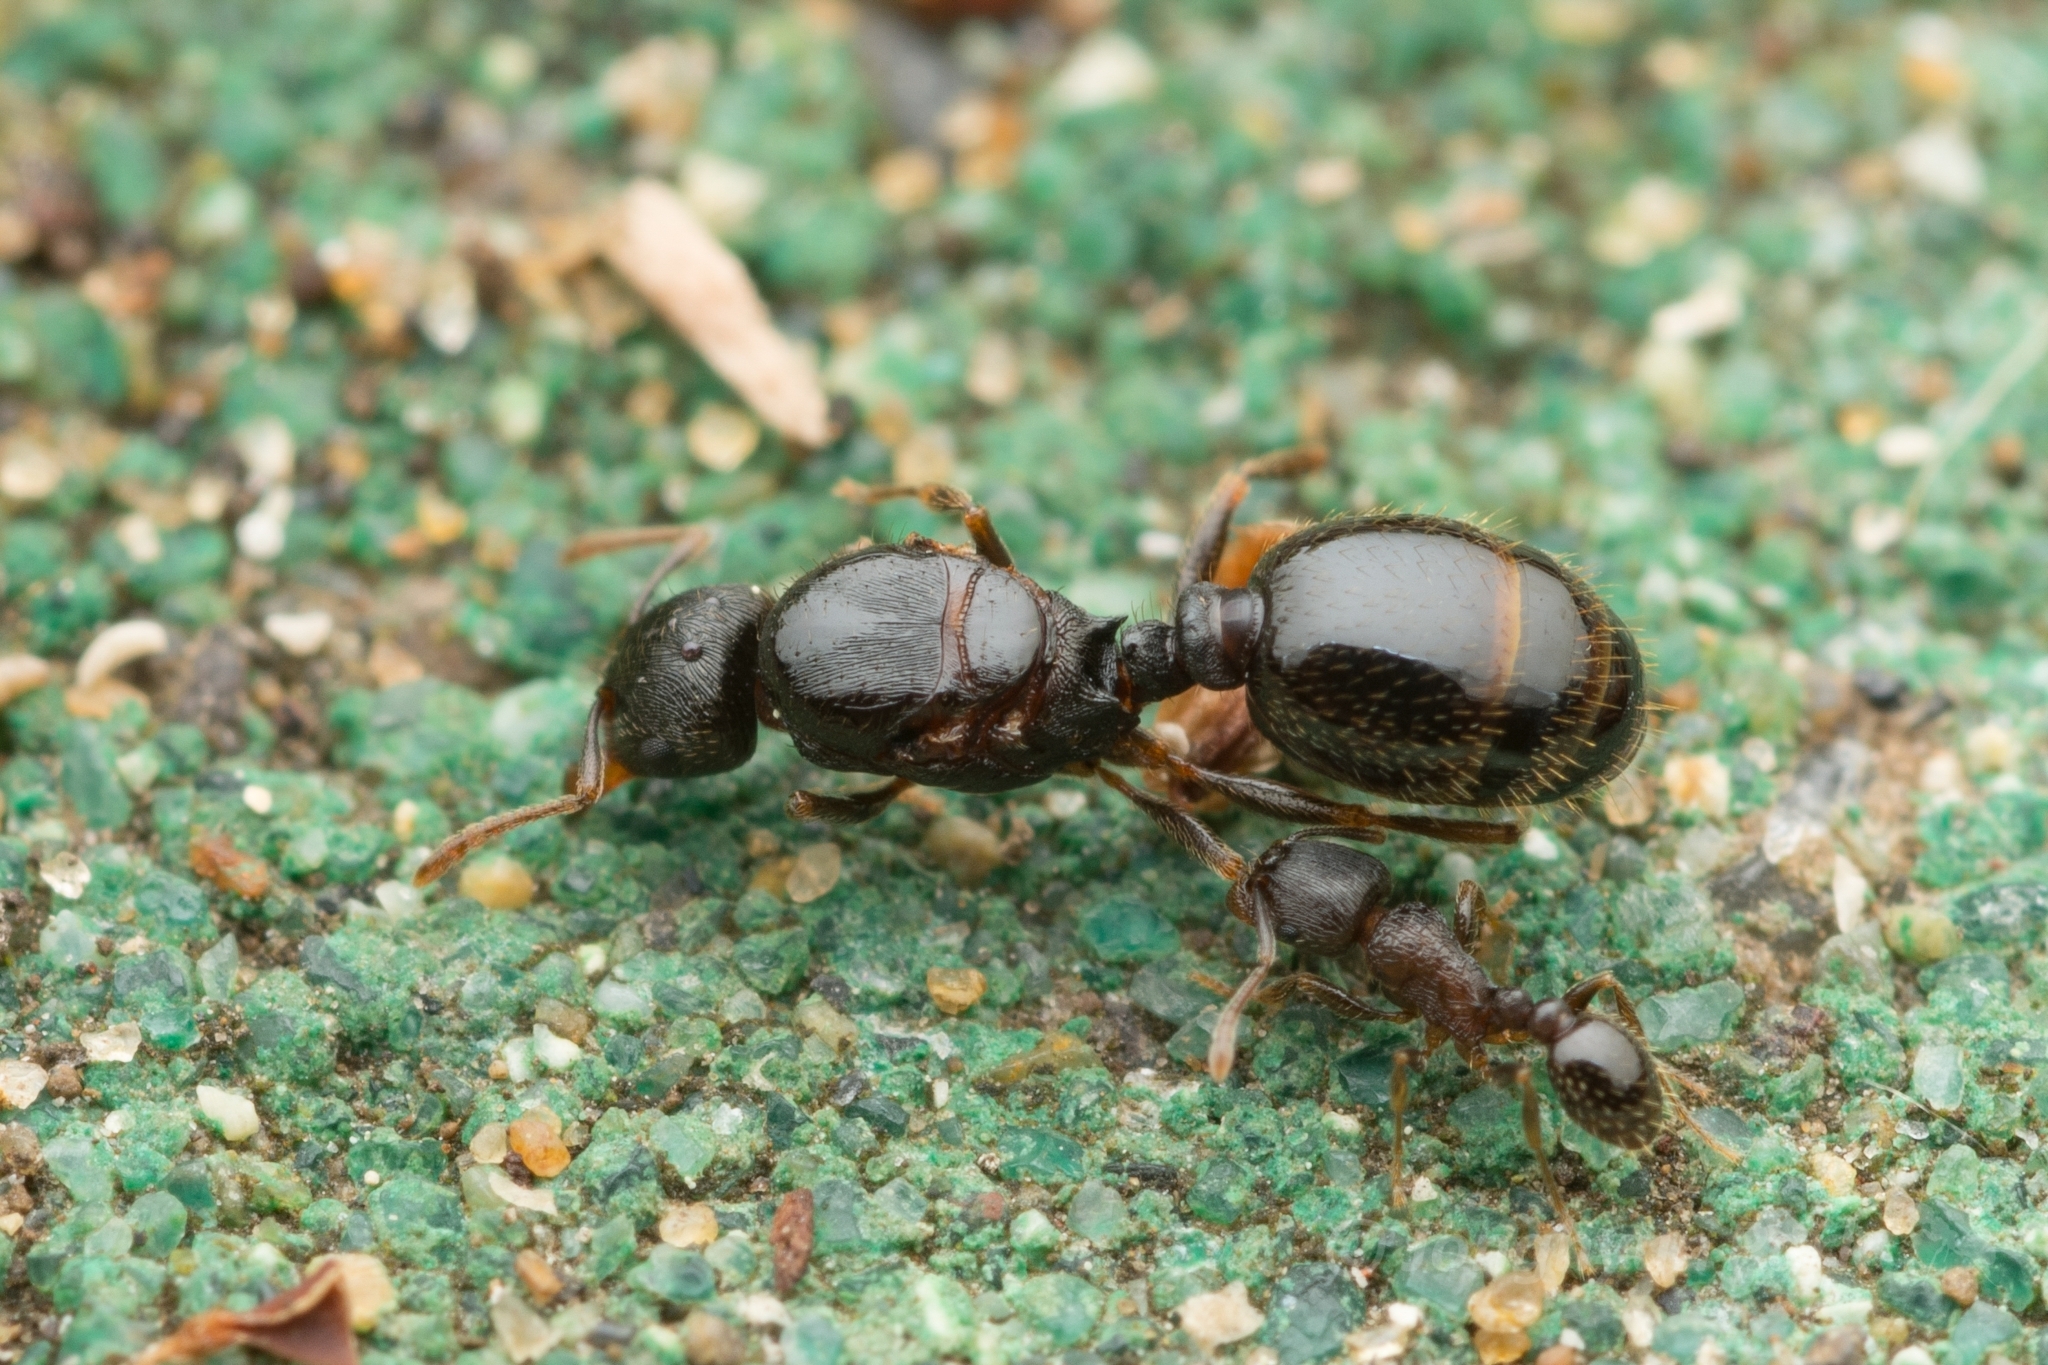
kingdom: Animalia
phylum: Arthropoda
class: Insecta
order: Hymenoptera
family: Formicidae
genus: Tetramorium
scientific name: Tetramorium tsushimae
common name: Ant
